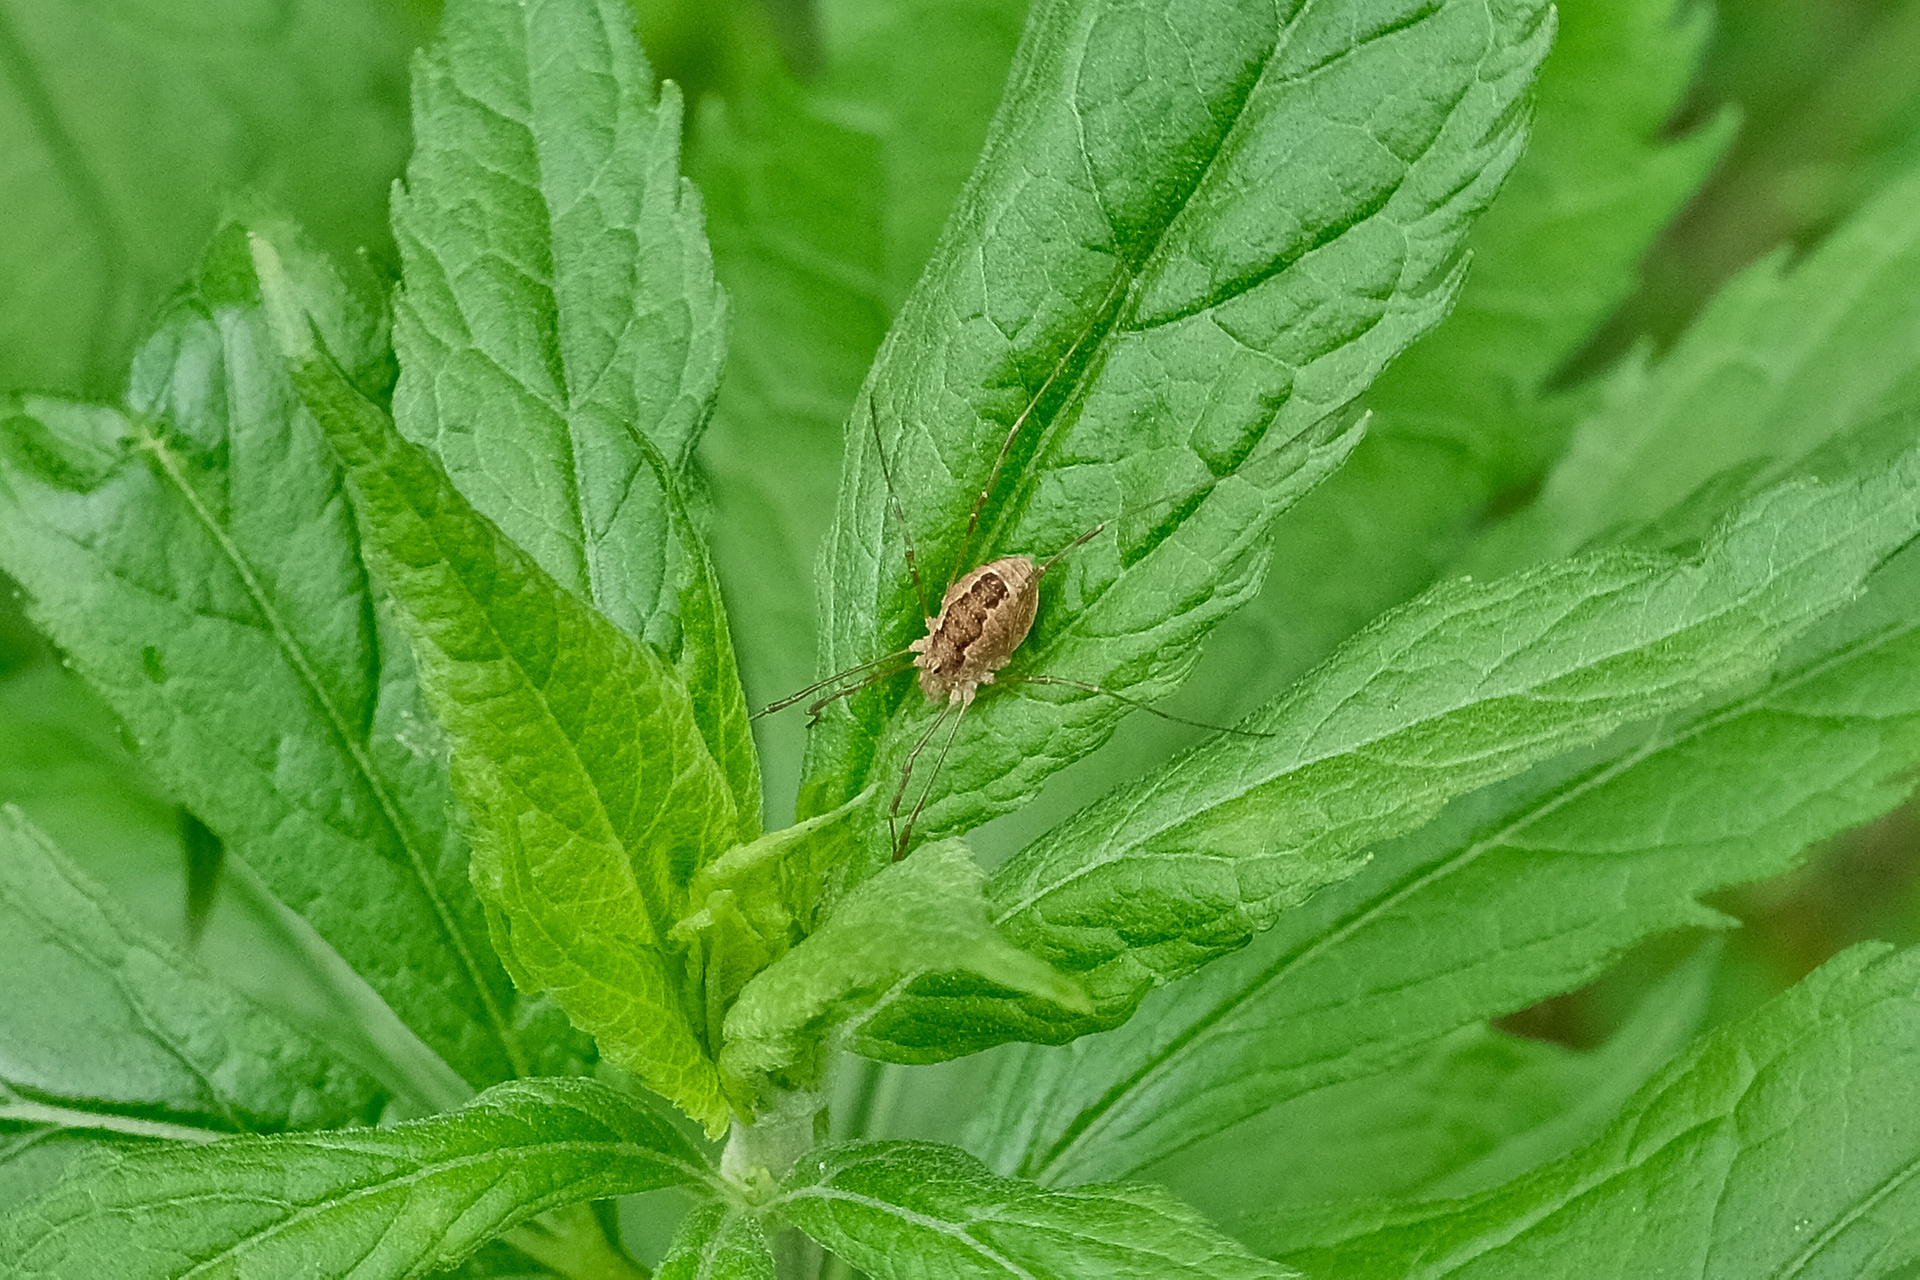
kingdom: Animalia
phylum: Arthropoda
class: Arachnida
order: Opiliones
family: Phalangiidae
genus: Rilaena
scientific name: Rilaena triangularis
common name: Spring harvestman
